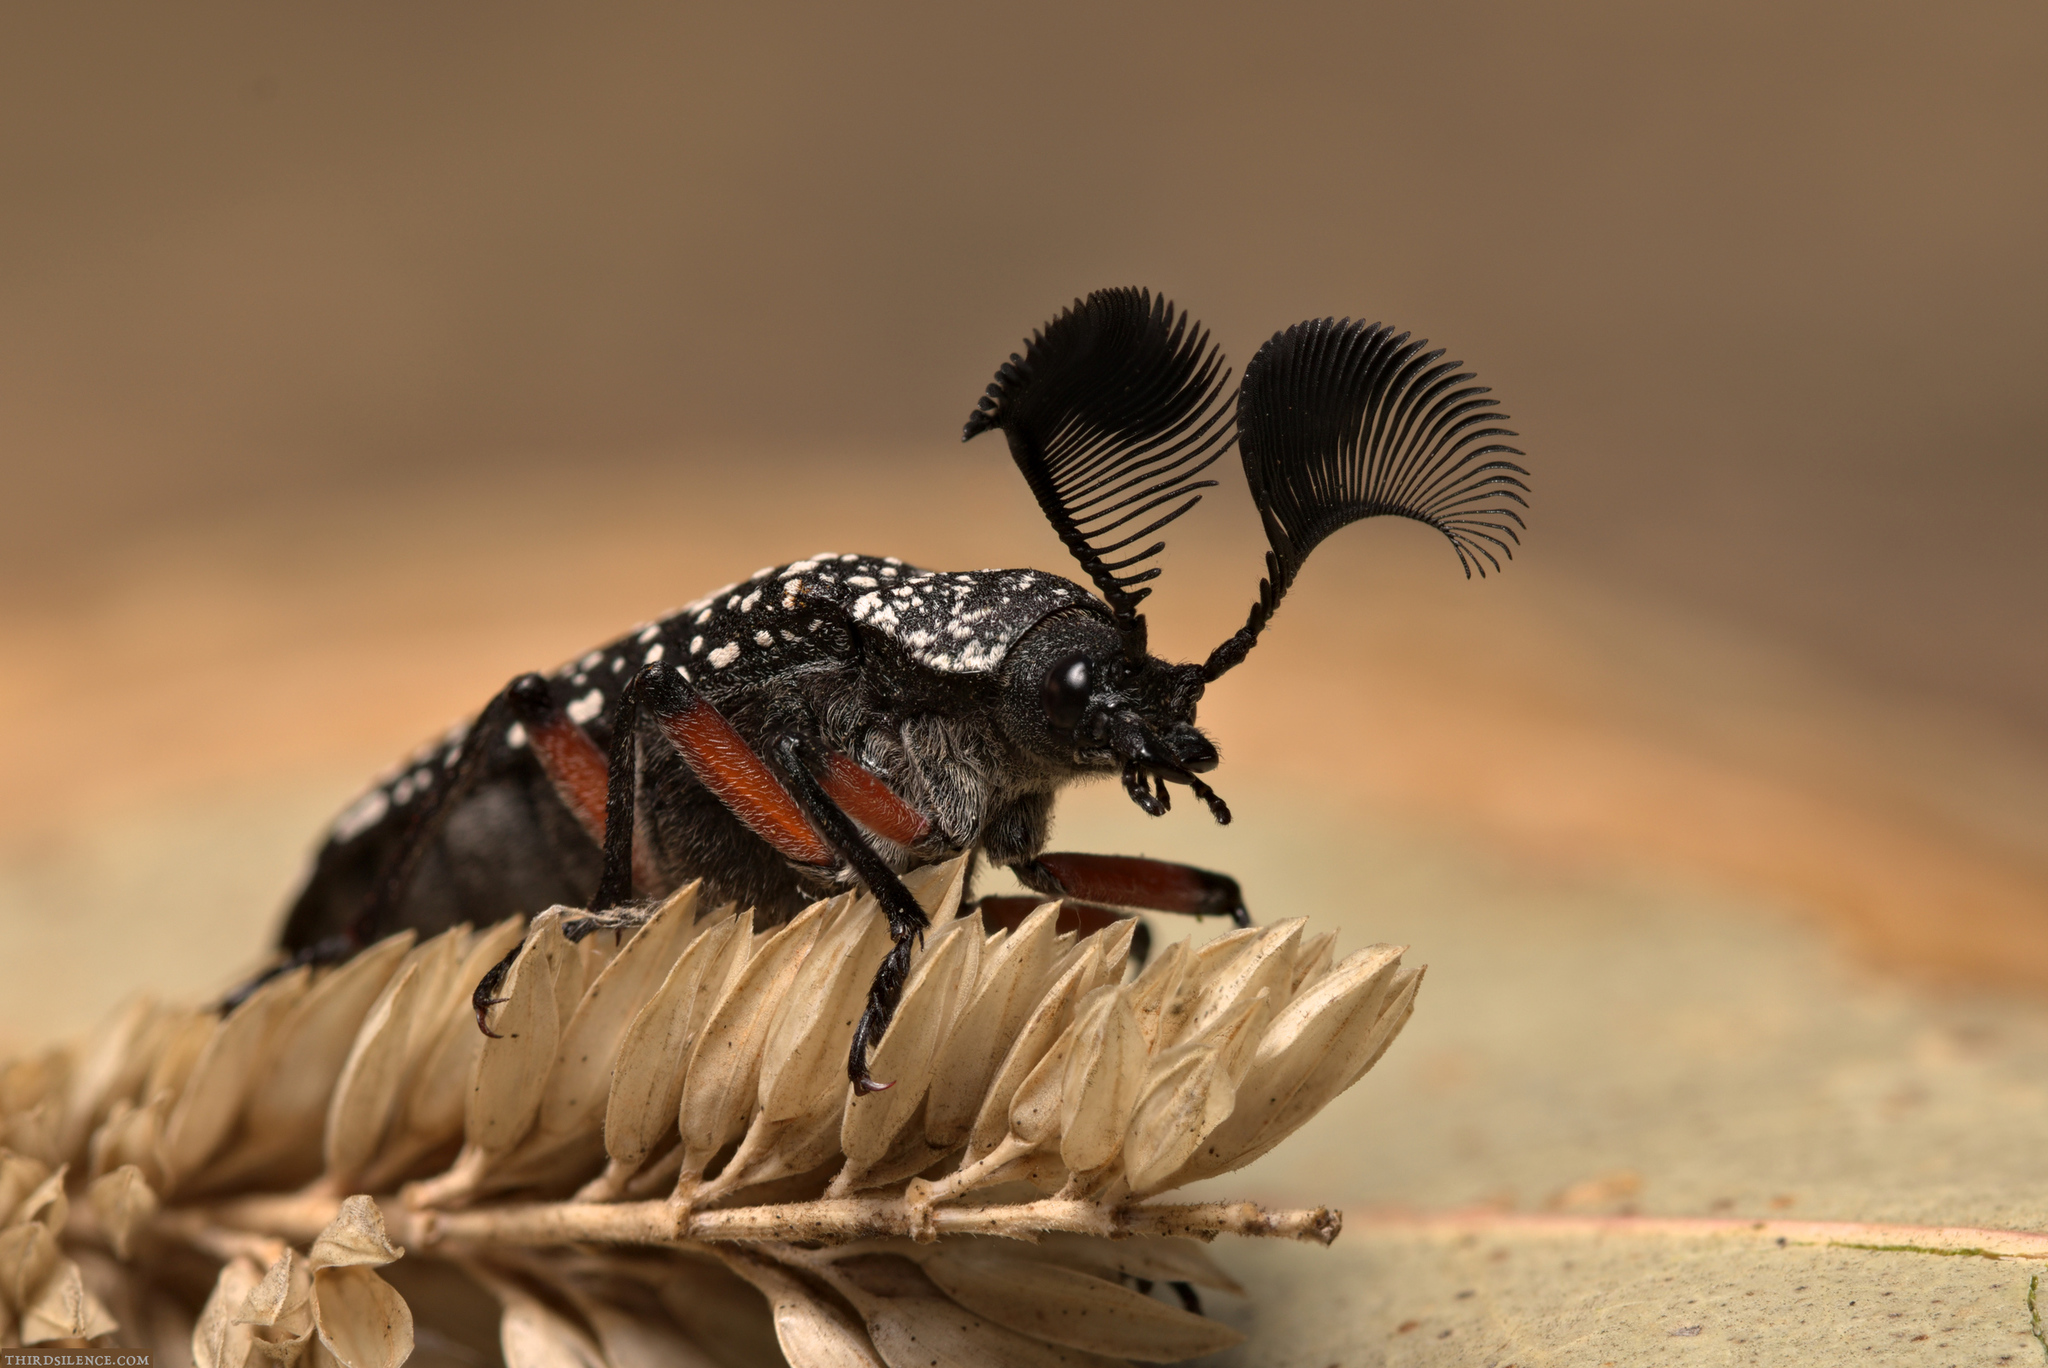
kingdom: Animalia
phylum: Arthropoda
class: Insecta
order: Coleoptera
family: Rhipiceridae
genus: Rhipicera
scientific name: Rhipicera femorata
